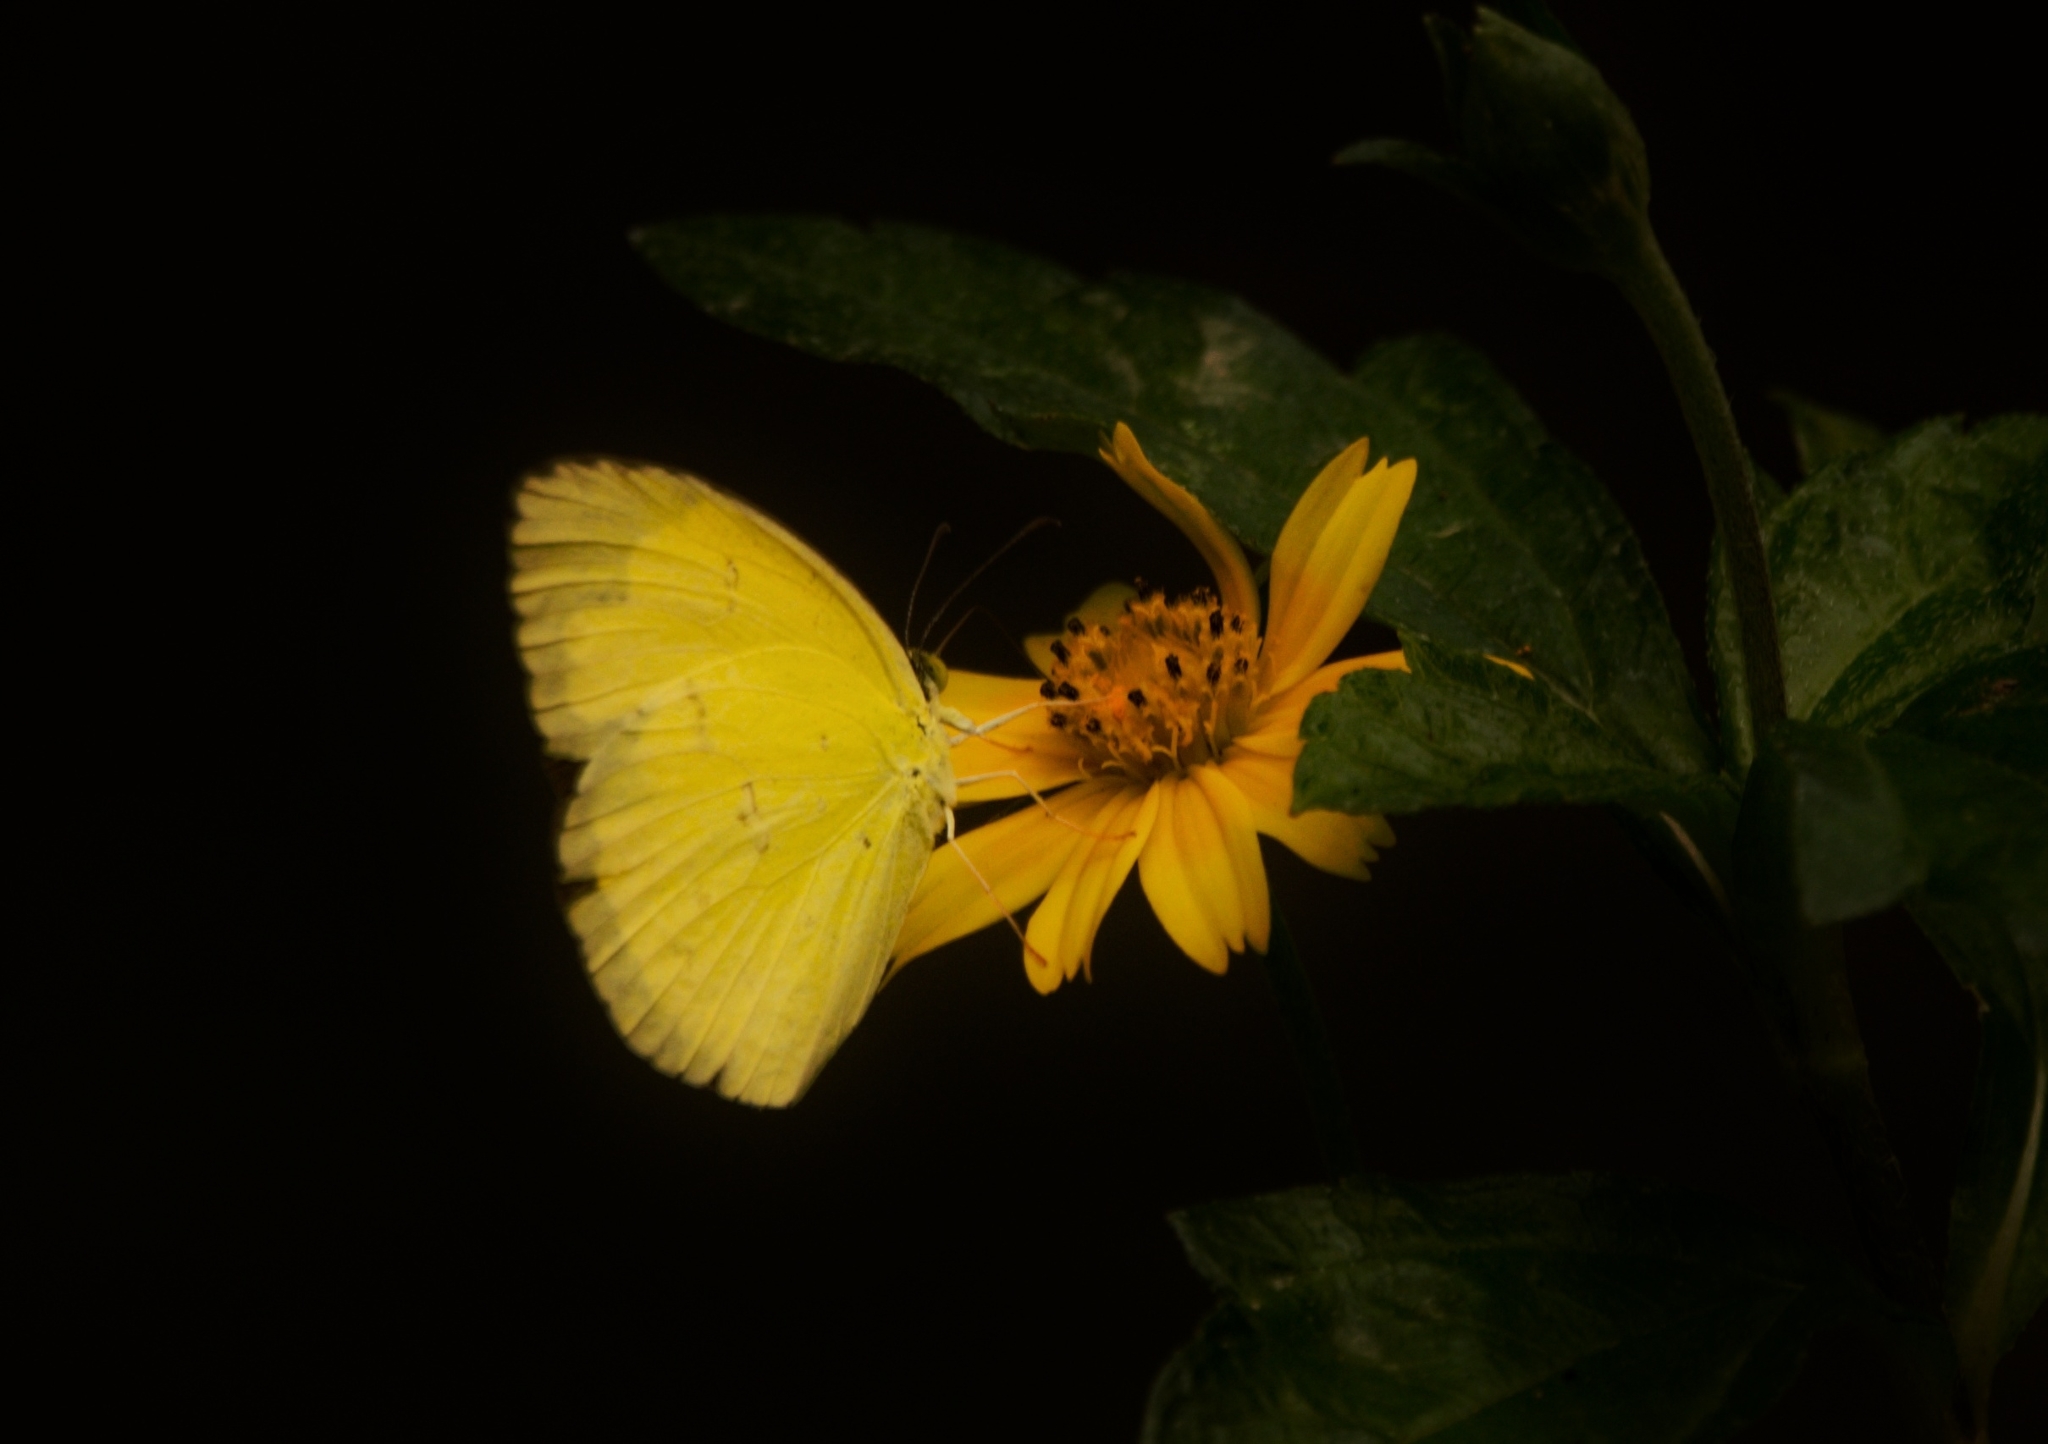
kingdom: Animalia
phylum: Arthropoda
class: Insecta
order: Lepidoptera
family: Pieridae
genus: Eurema
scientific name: Eurema hecabe
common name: Pale grass yellow
